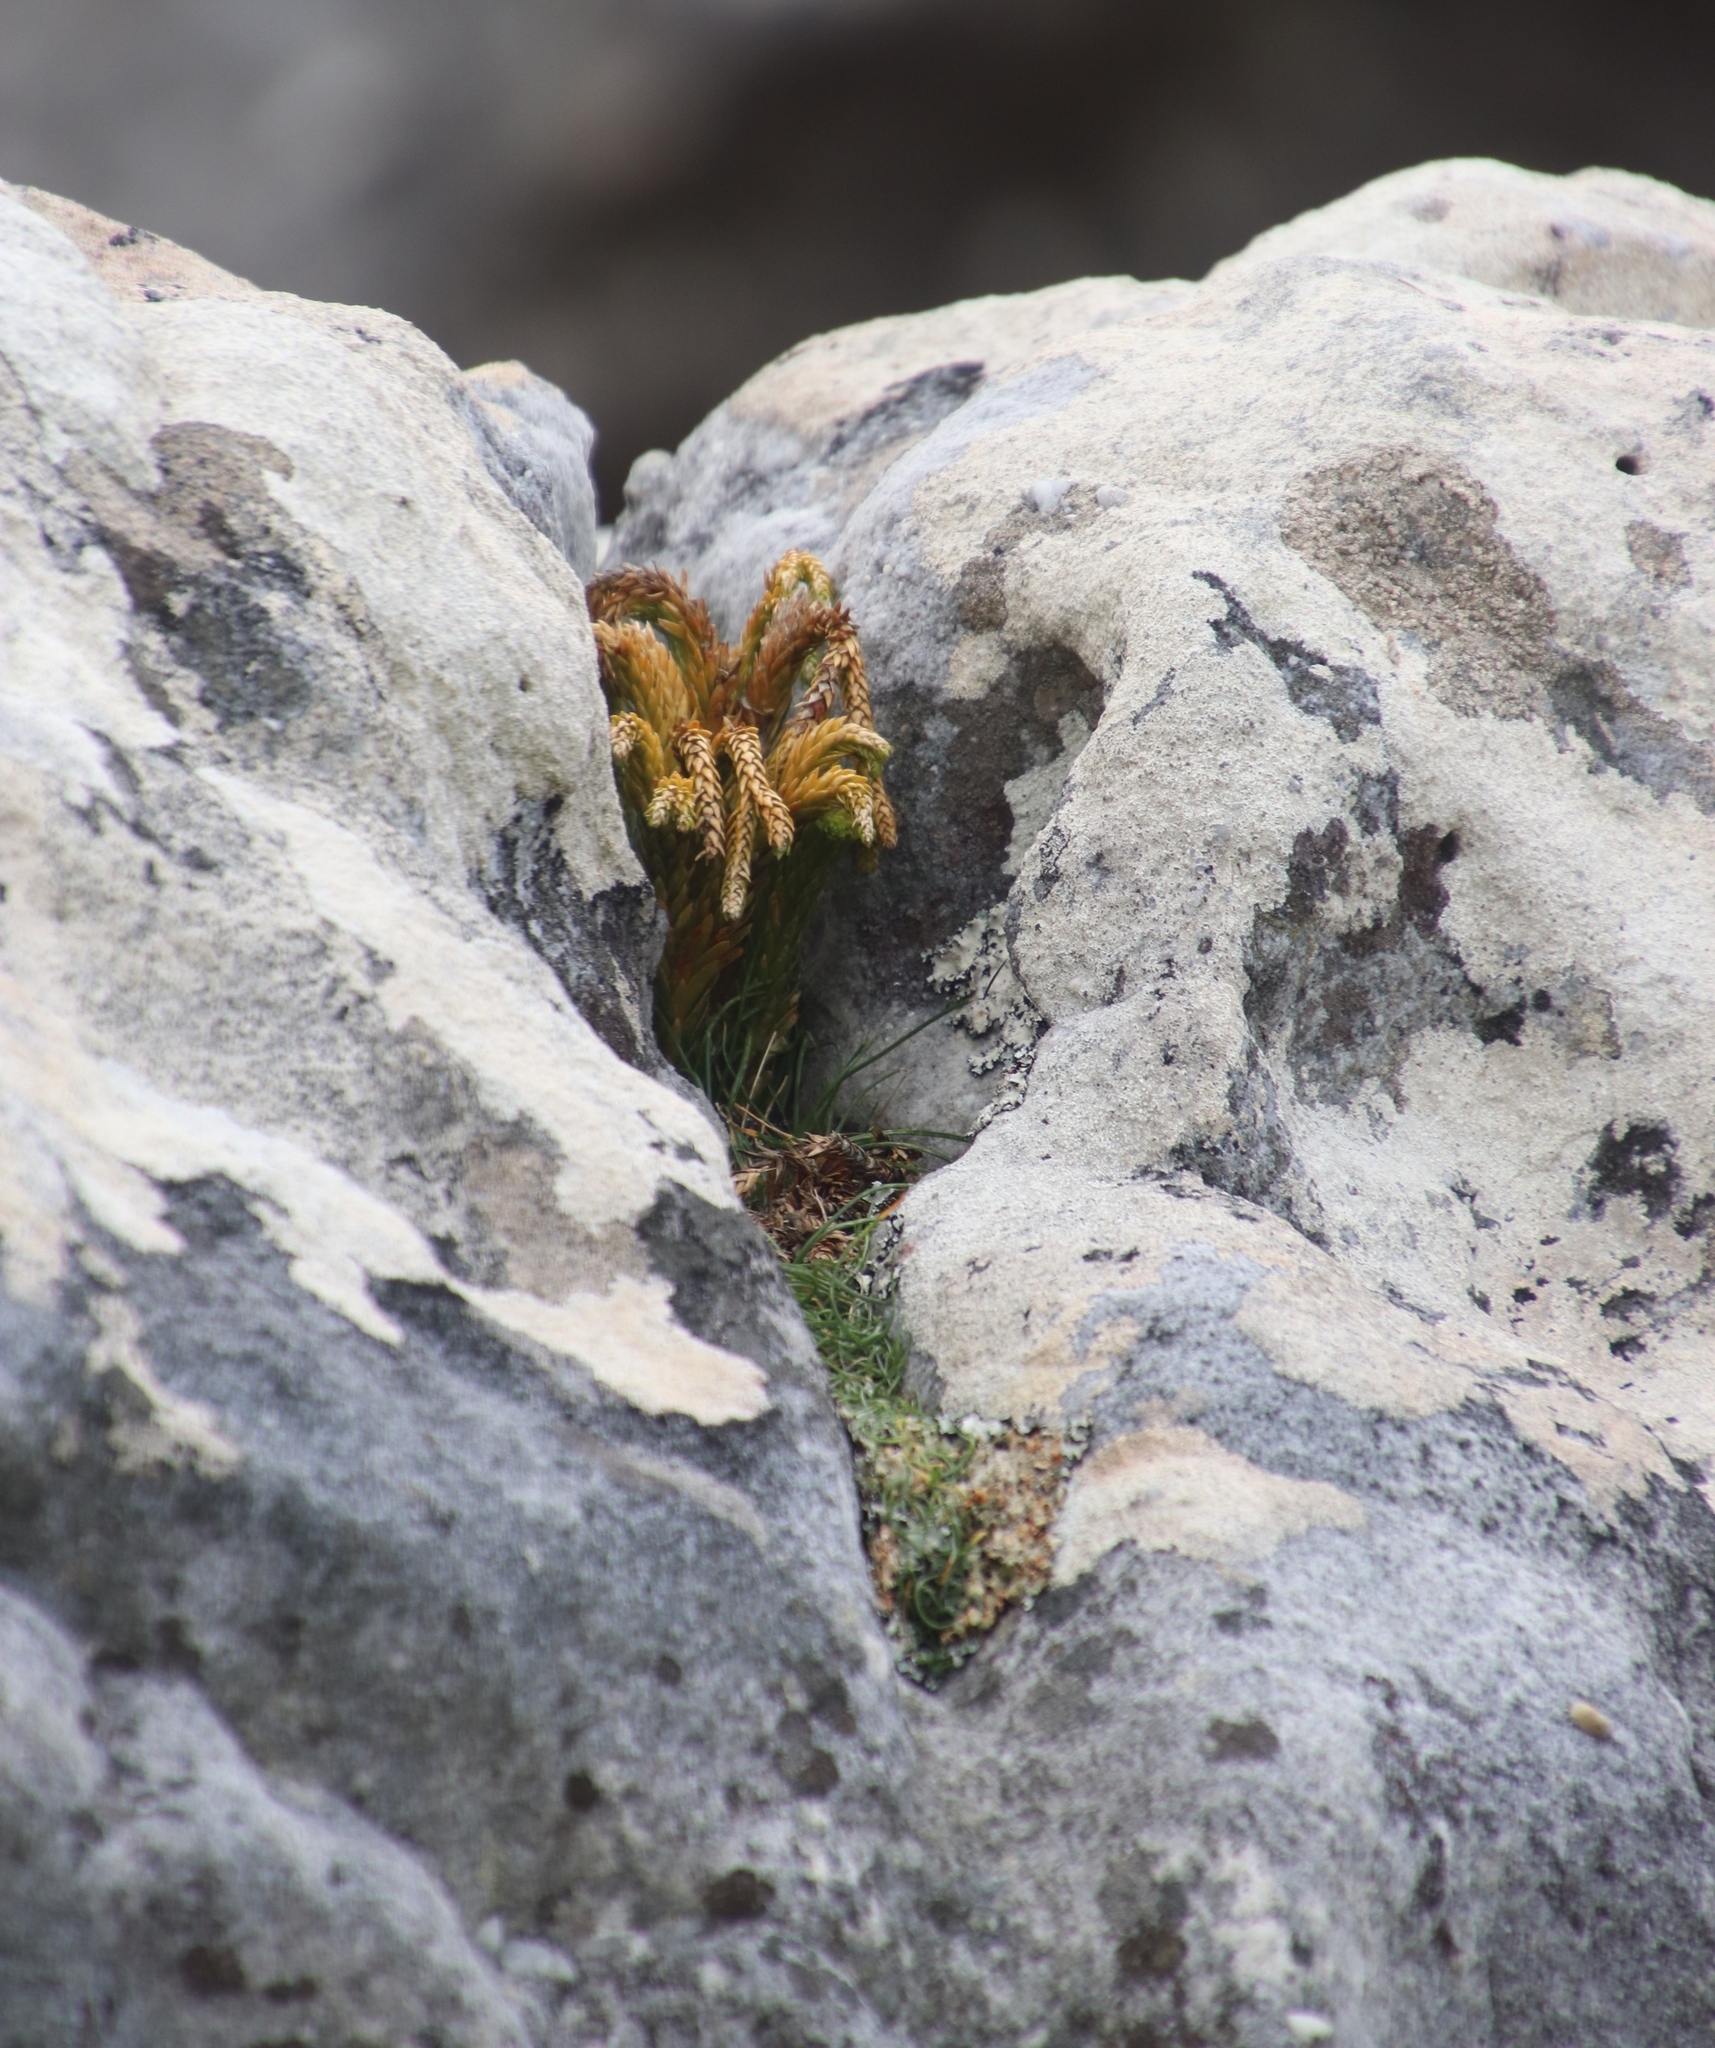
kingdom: Plantae
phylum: Tracheophyta
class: Lycopodiopsida
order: Lycopodiales
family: Lycopodiaceae
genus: Phlegmariurus
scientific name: Phlegmariurus gnidioides
